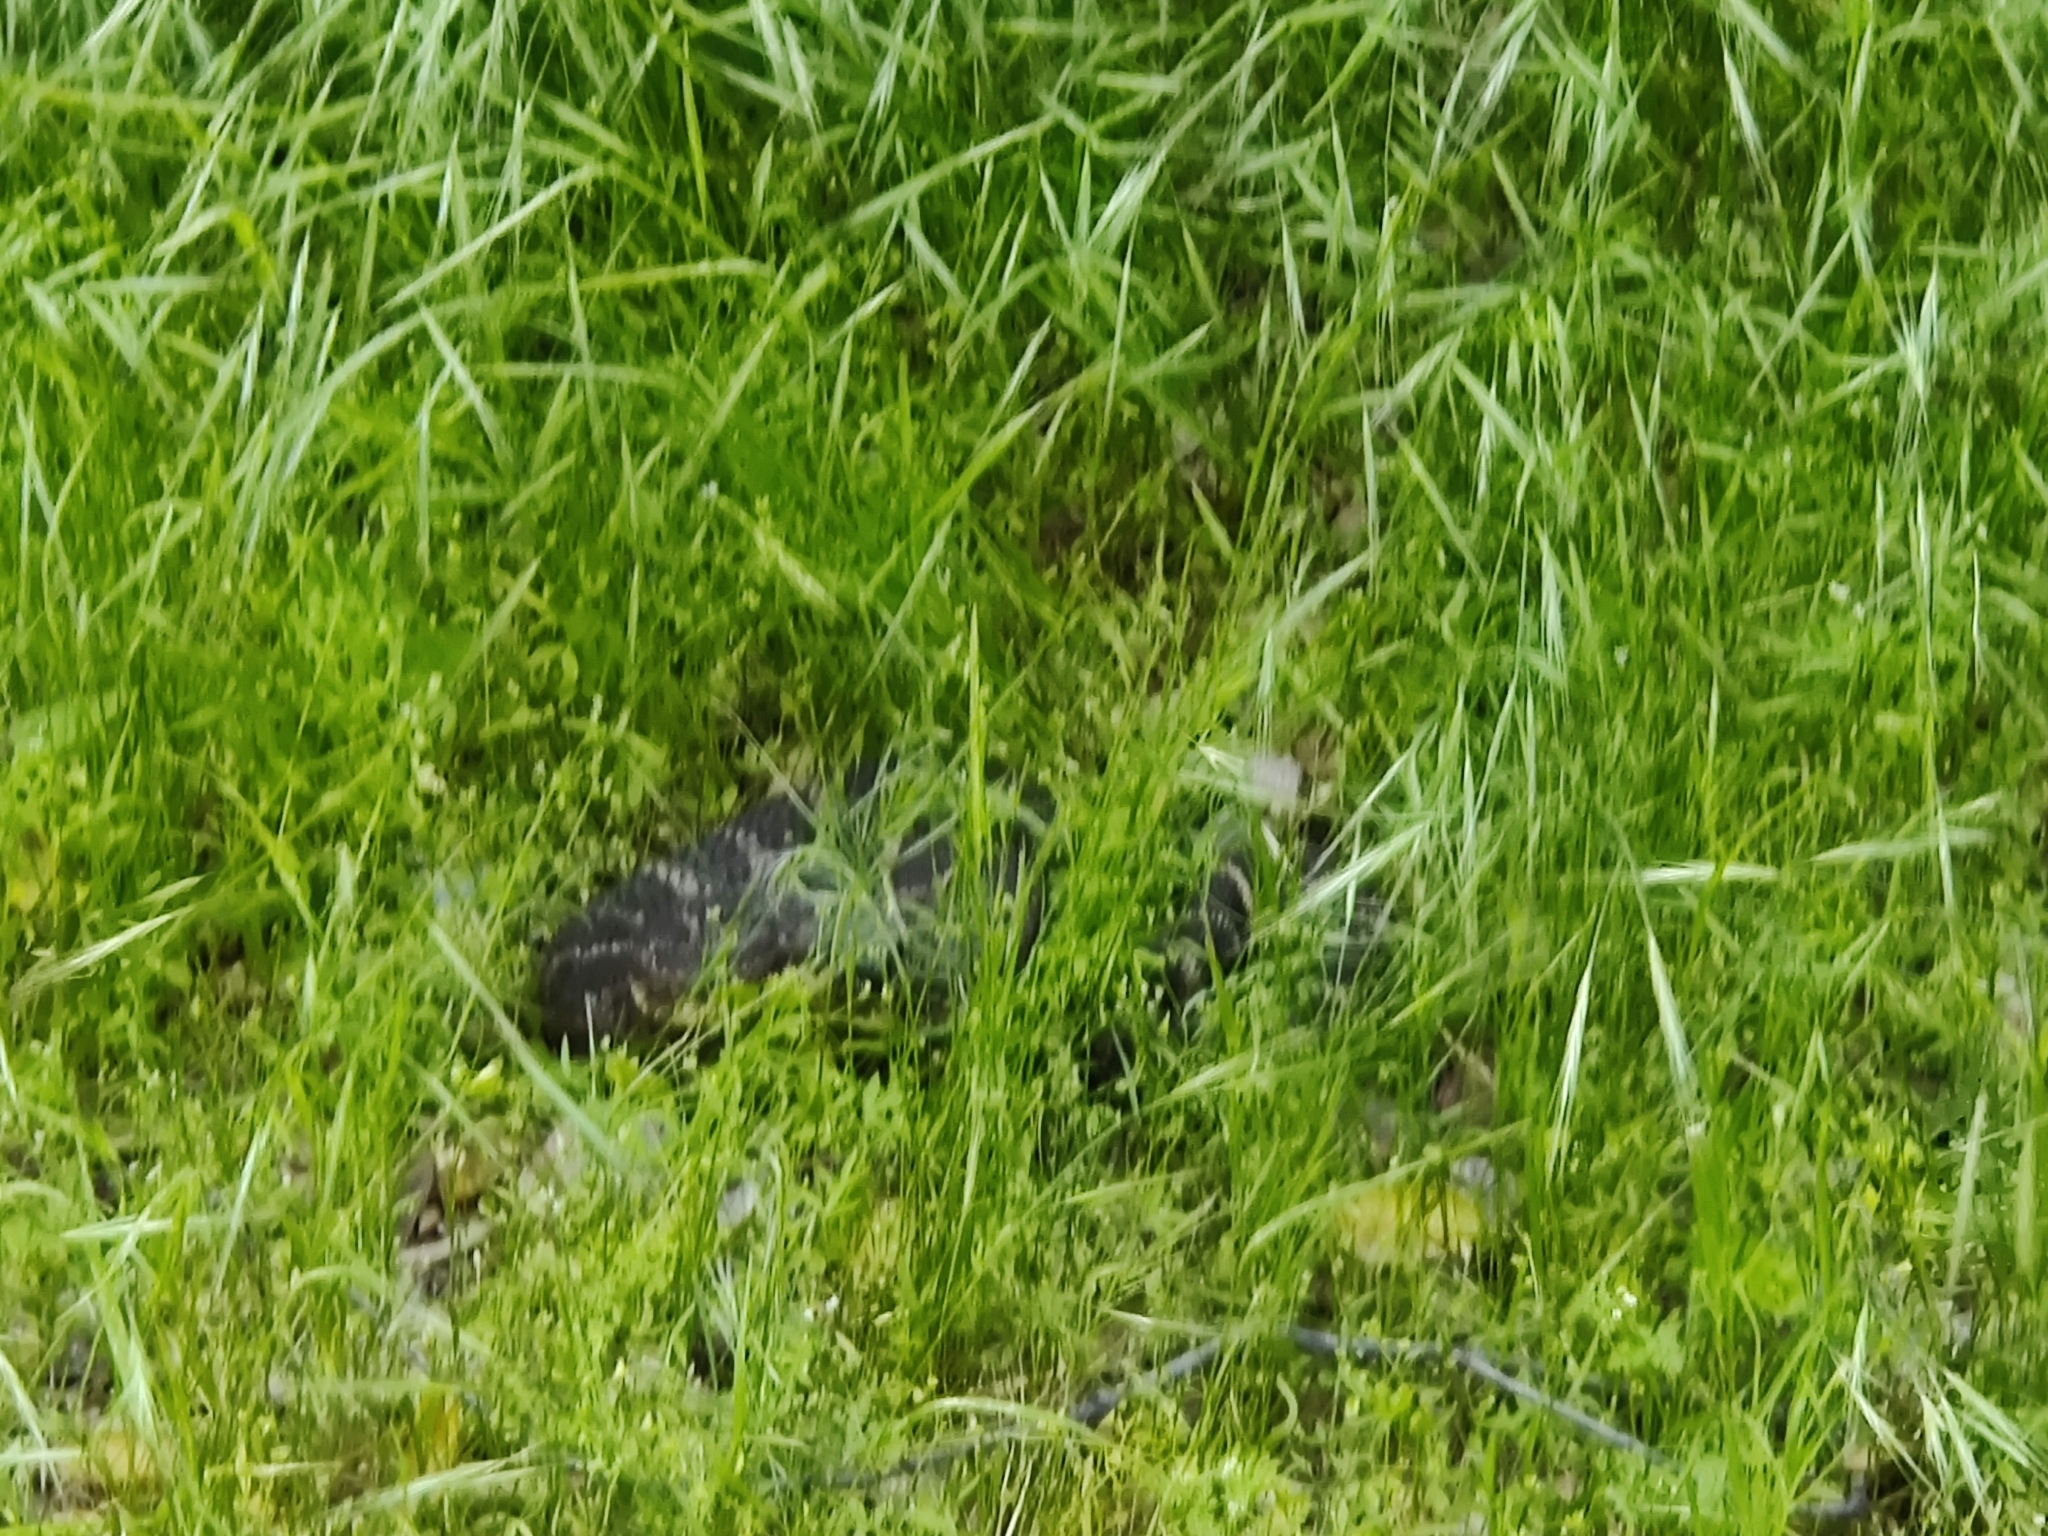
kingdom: Animalia
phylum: Chordata
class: Squamata
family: Viperidae
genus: Crotalus
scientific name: Crotalus oreganus
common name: Abyssus
